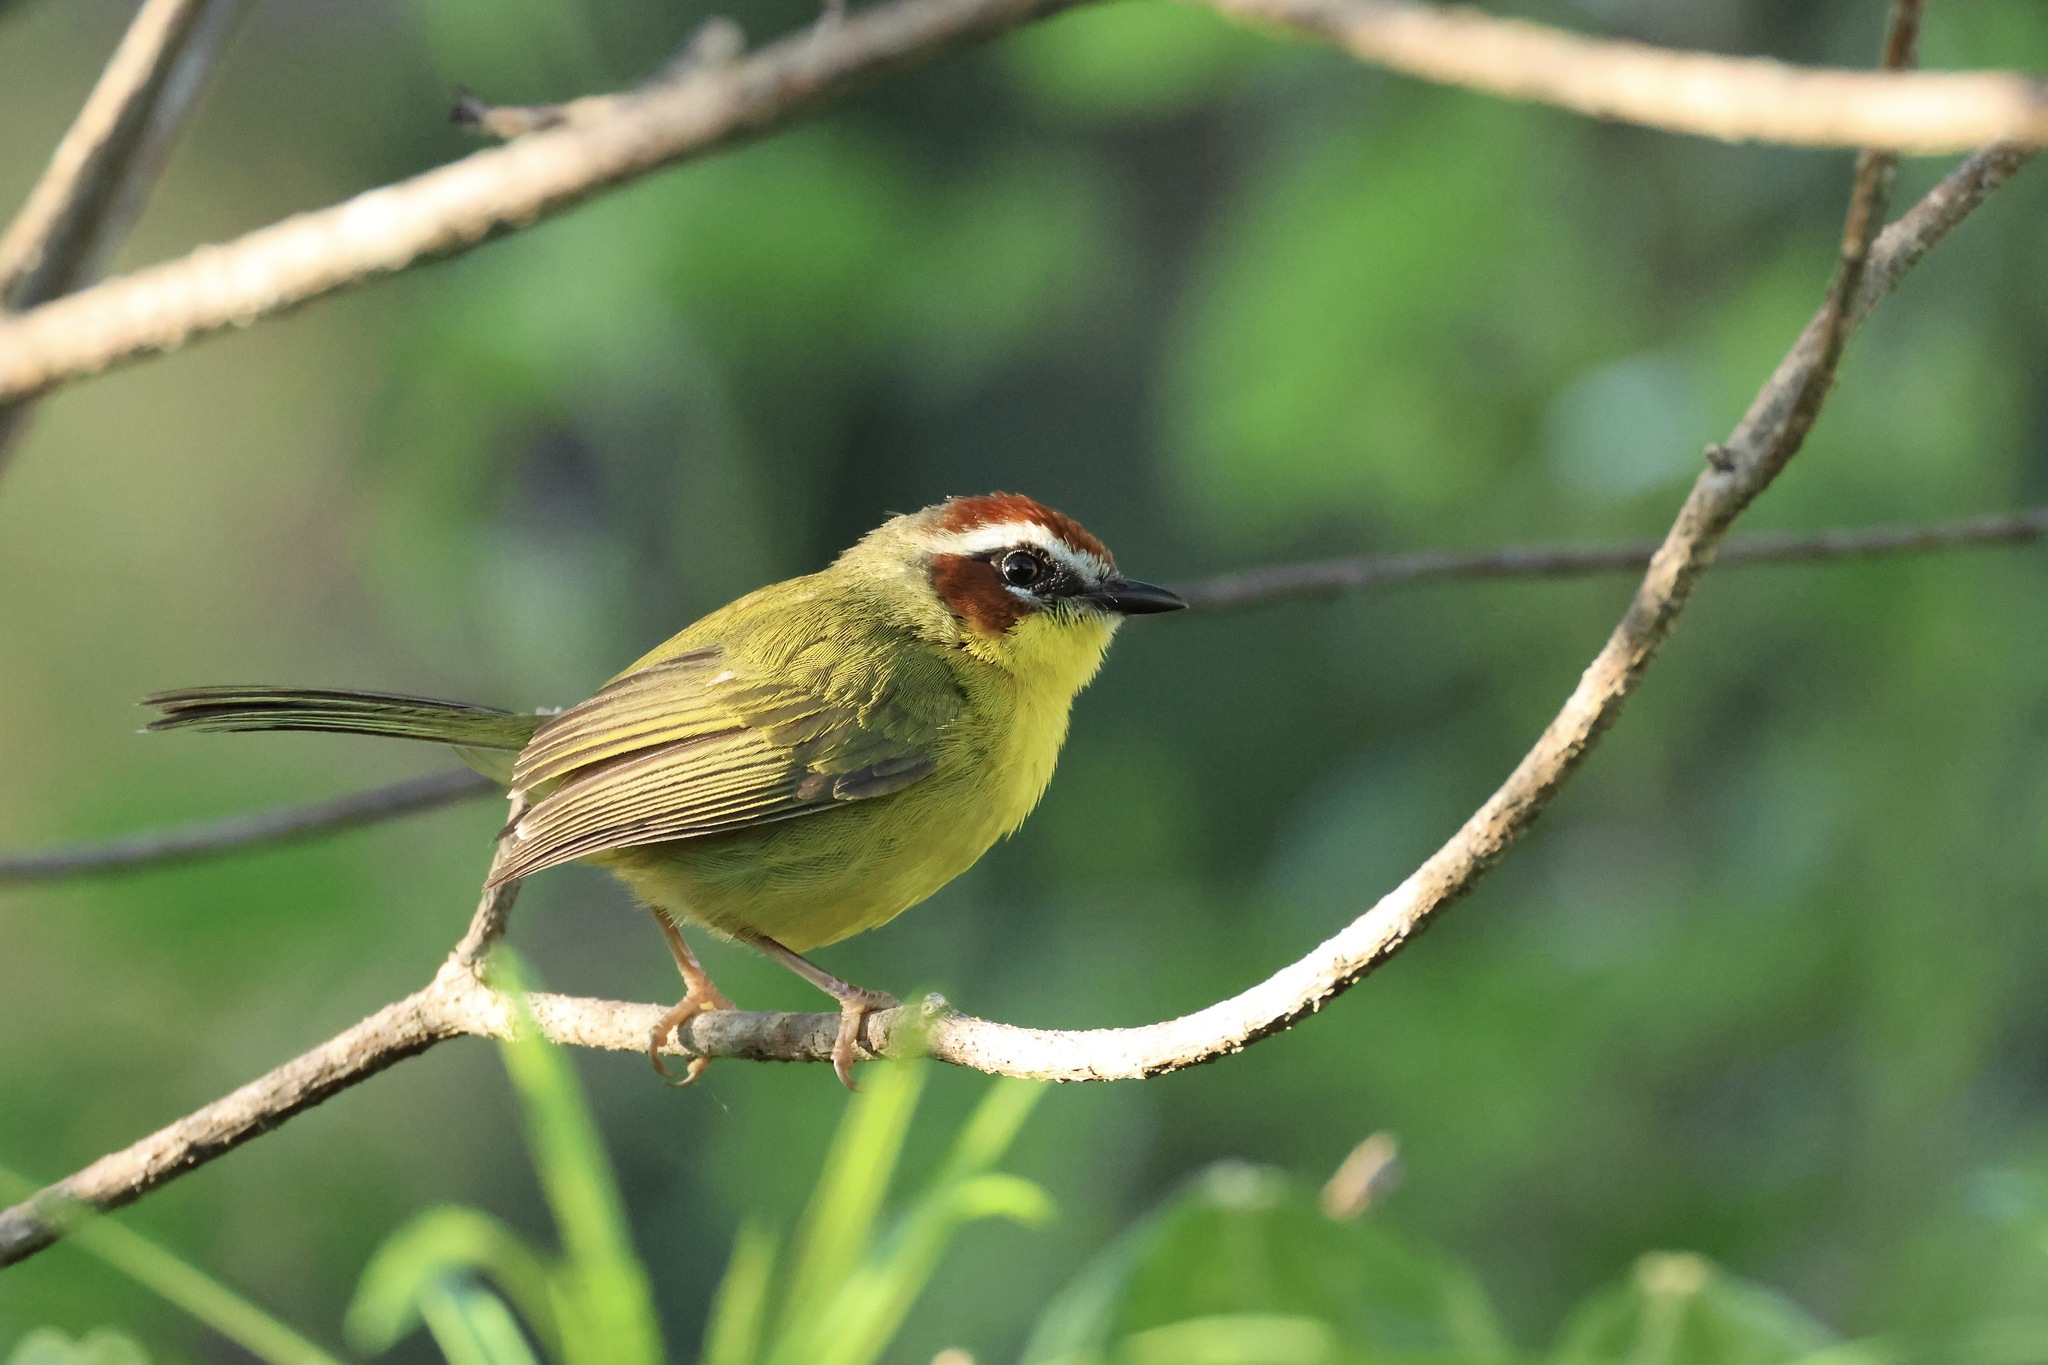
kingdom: Animalia
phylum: Chordata
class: Aves
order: Passeriformes
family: Parulidae
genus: Basileuterus
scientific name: Basileuterus rufifrons
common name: Rufous-capped warbler
